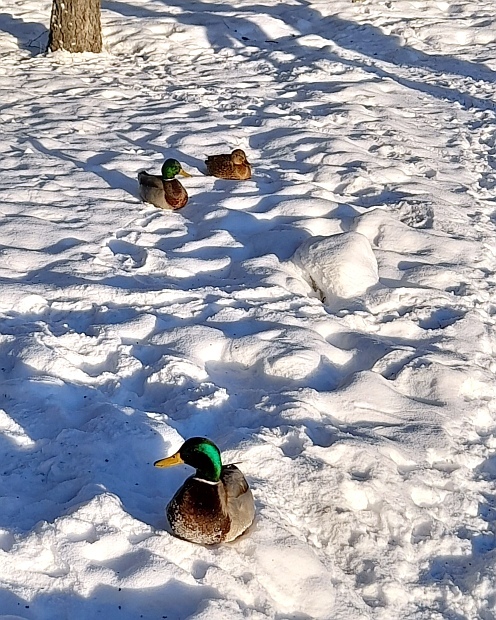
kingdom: Animalia
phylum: Chordata
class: Aves
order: Anseriformes
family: Anatidae
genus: Anas
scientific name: Anas platyrhynchos
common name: Mallard
